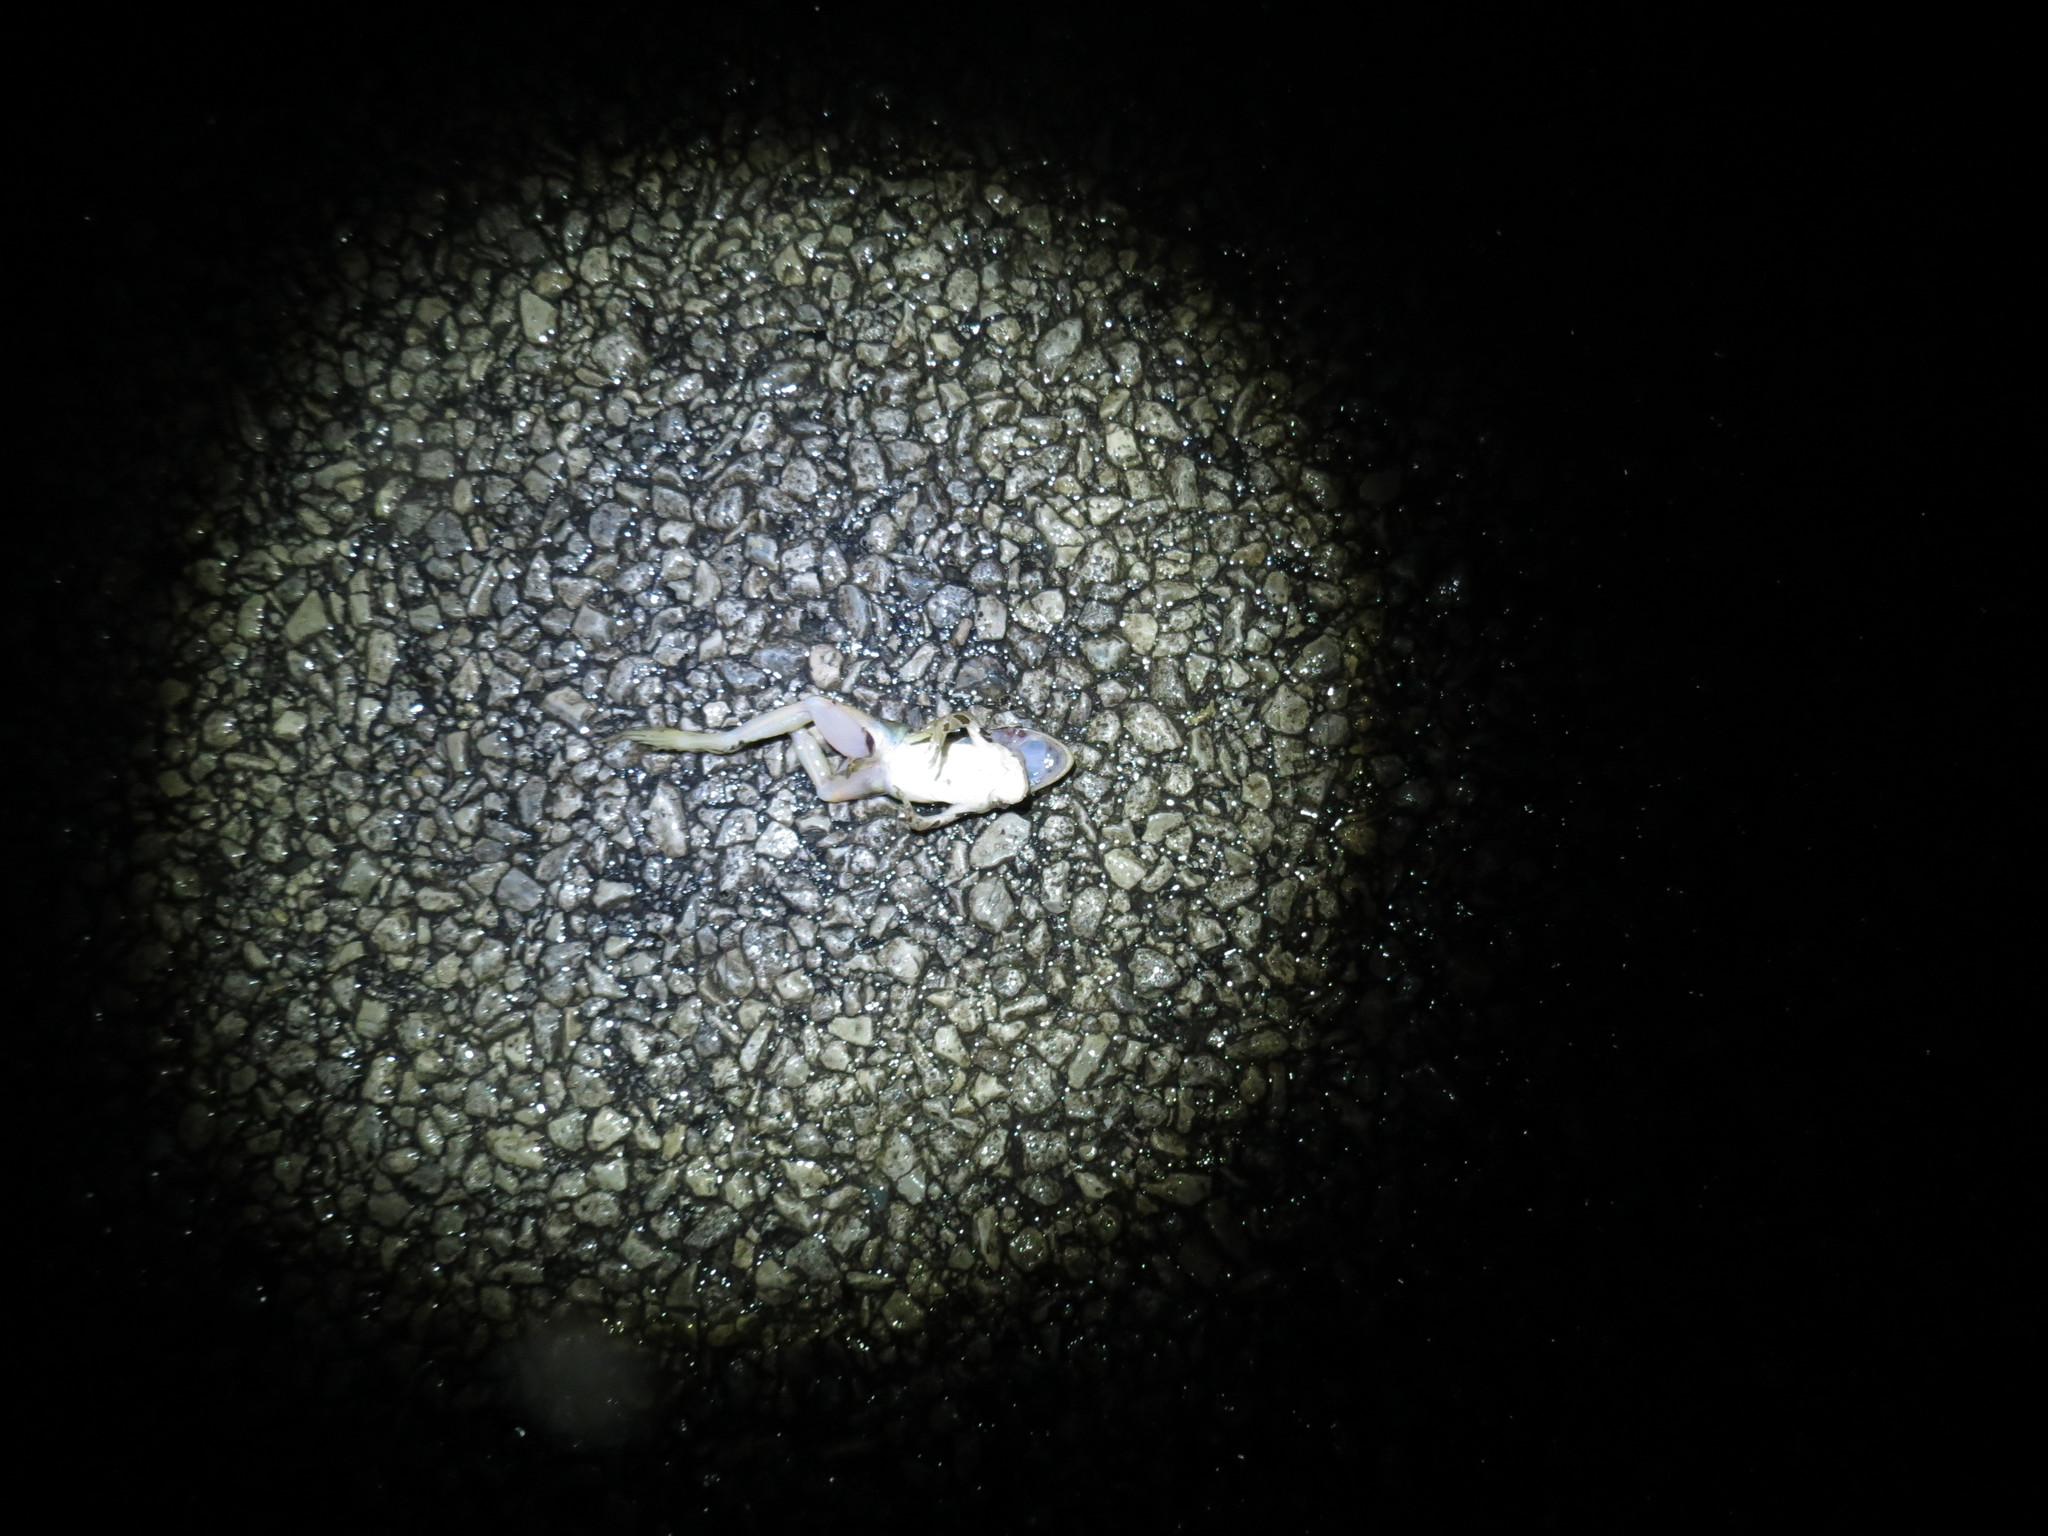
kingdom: Animalia
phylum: Chordata
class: Amphibia
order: Anura
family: Ranidae
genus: Lithobates
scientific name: Lithobates pipiens
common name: Northern leopard frog
